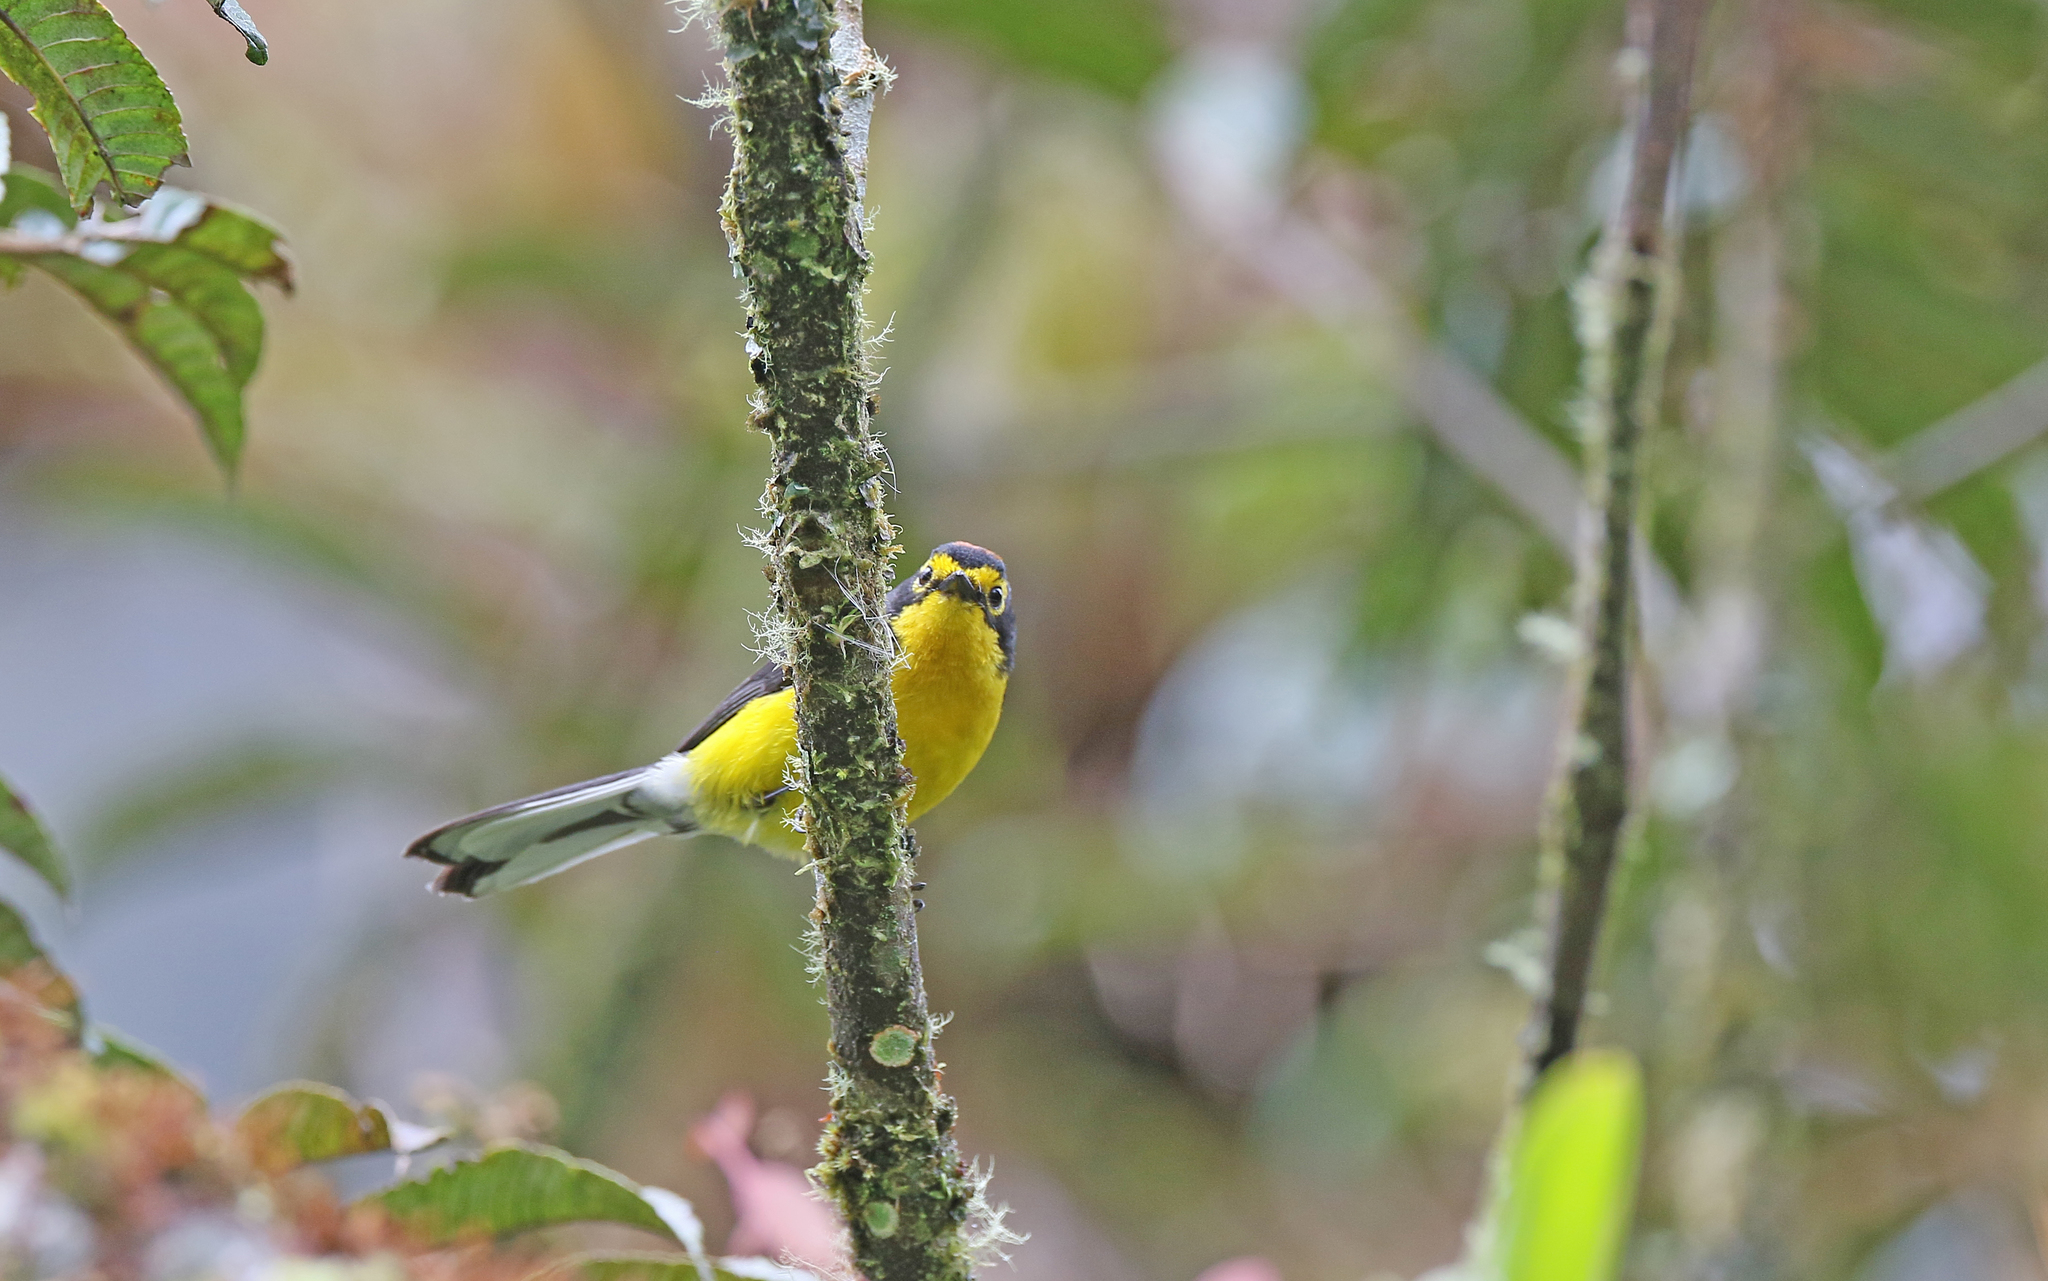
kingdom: Animalia
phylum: Chordata
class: Aves
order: Passeriformes
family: Parulidae
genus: Myioborus
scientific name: Myioborus melanocephalus
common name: Spectacled whitestart
